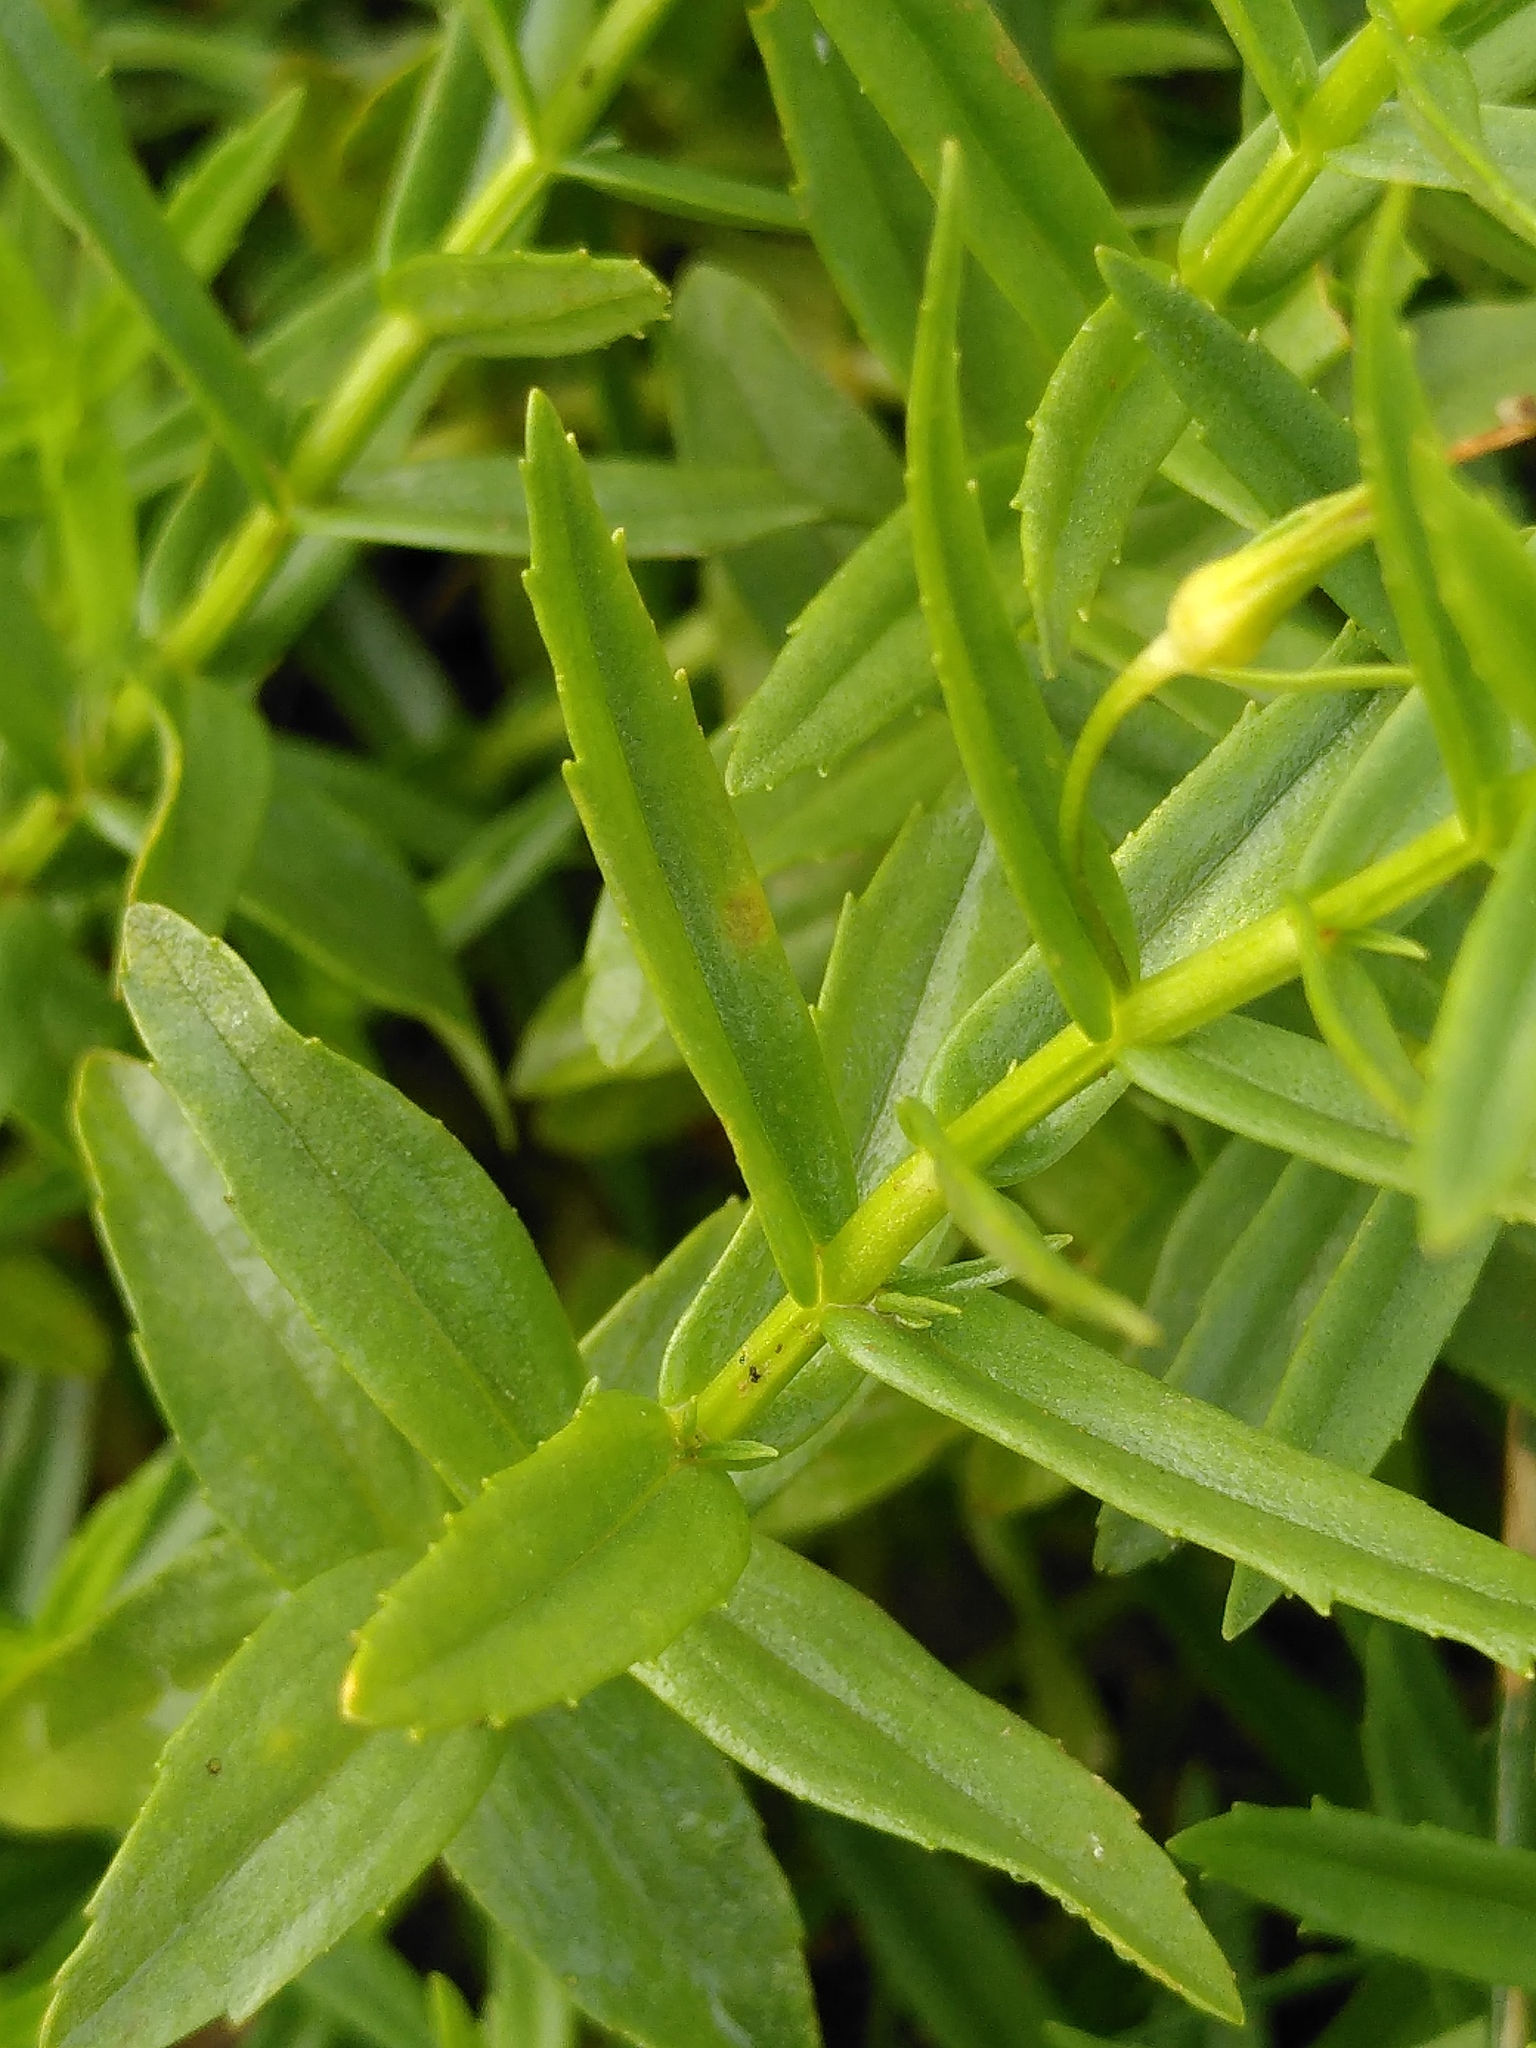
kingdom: Plantae
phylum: Tracheophyta
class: Magnoliopsida
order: Lamiales
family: Plantaginaceae
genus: Gratiola
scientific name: Gratiola officinalis
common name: Gratiola
